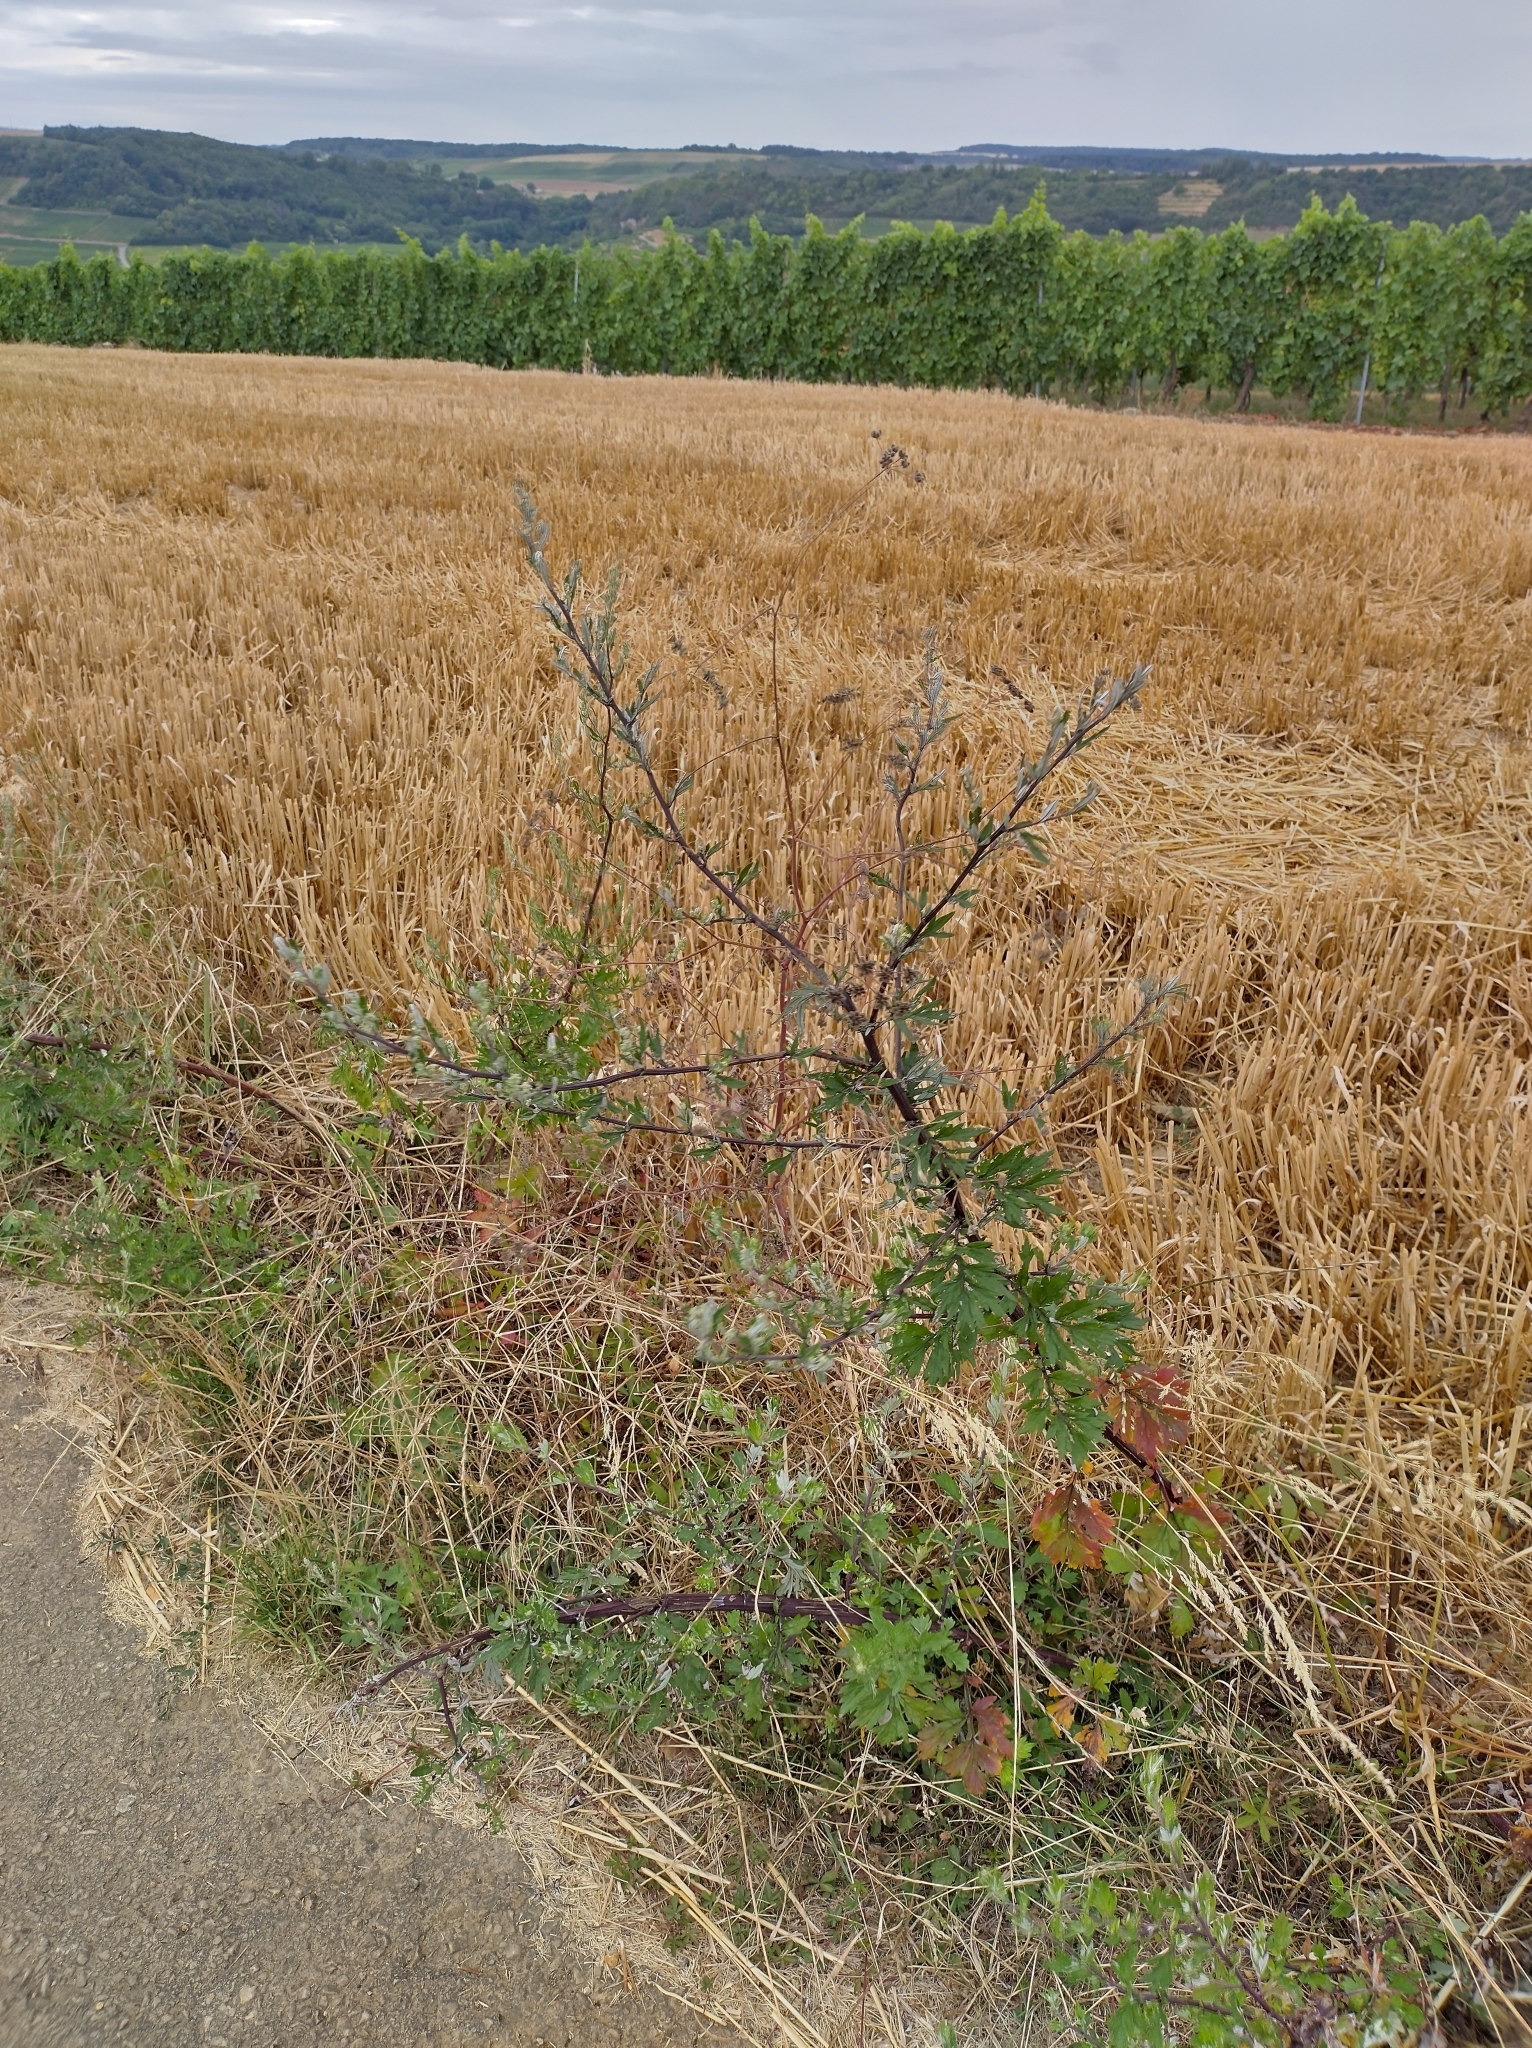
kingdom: Plantae
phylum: Tracheophyta
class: Magnoliopsida
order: Asterales
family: Asteraceae
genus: Artemisia
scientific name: Artemisia vulgaris
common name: Mugwort
